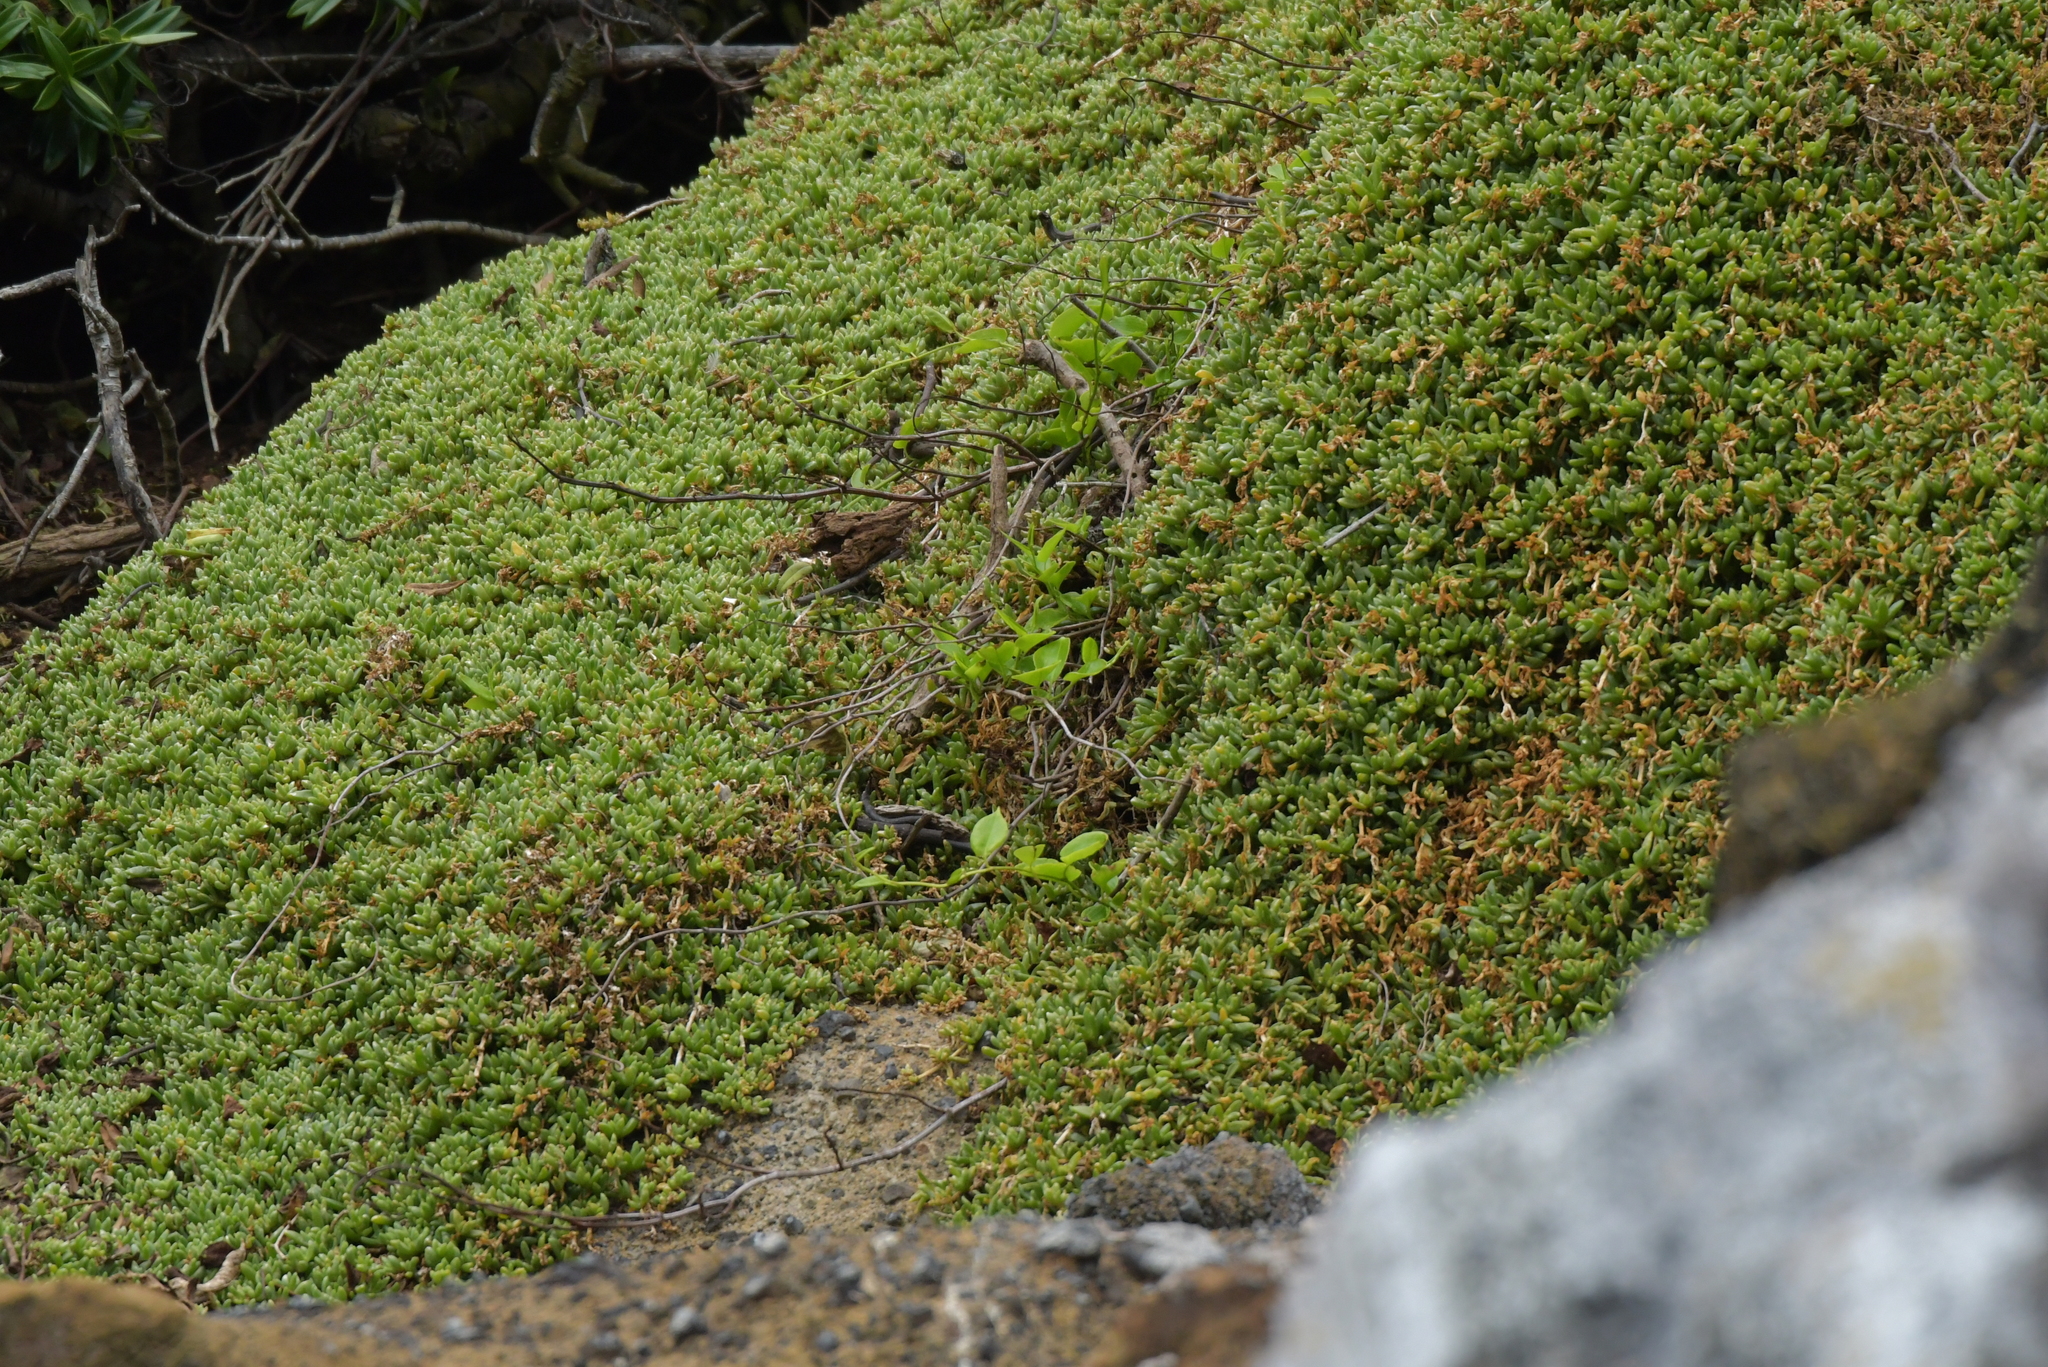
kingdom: Plantae
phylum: Tracheophyta
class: Magnoliopsida
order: Caryophyllales
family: Aizoaceae
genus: Disphyma
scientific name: Disphyma papillatum
